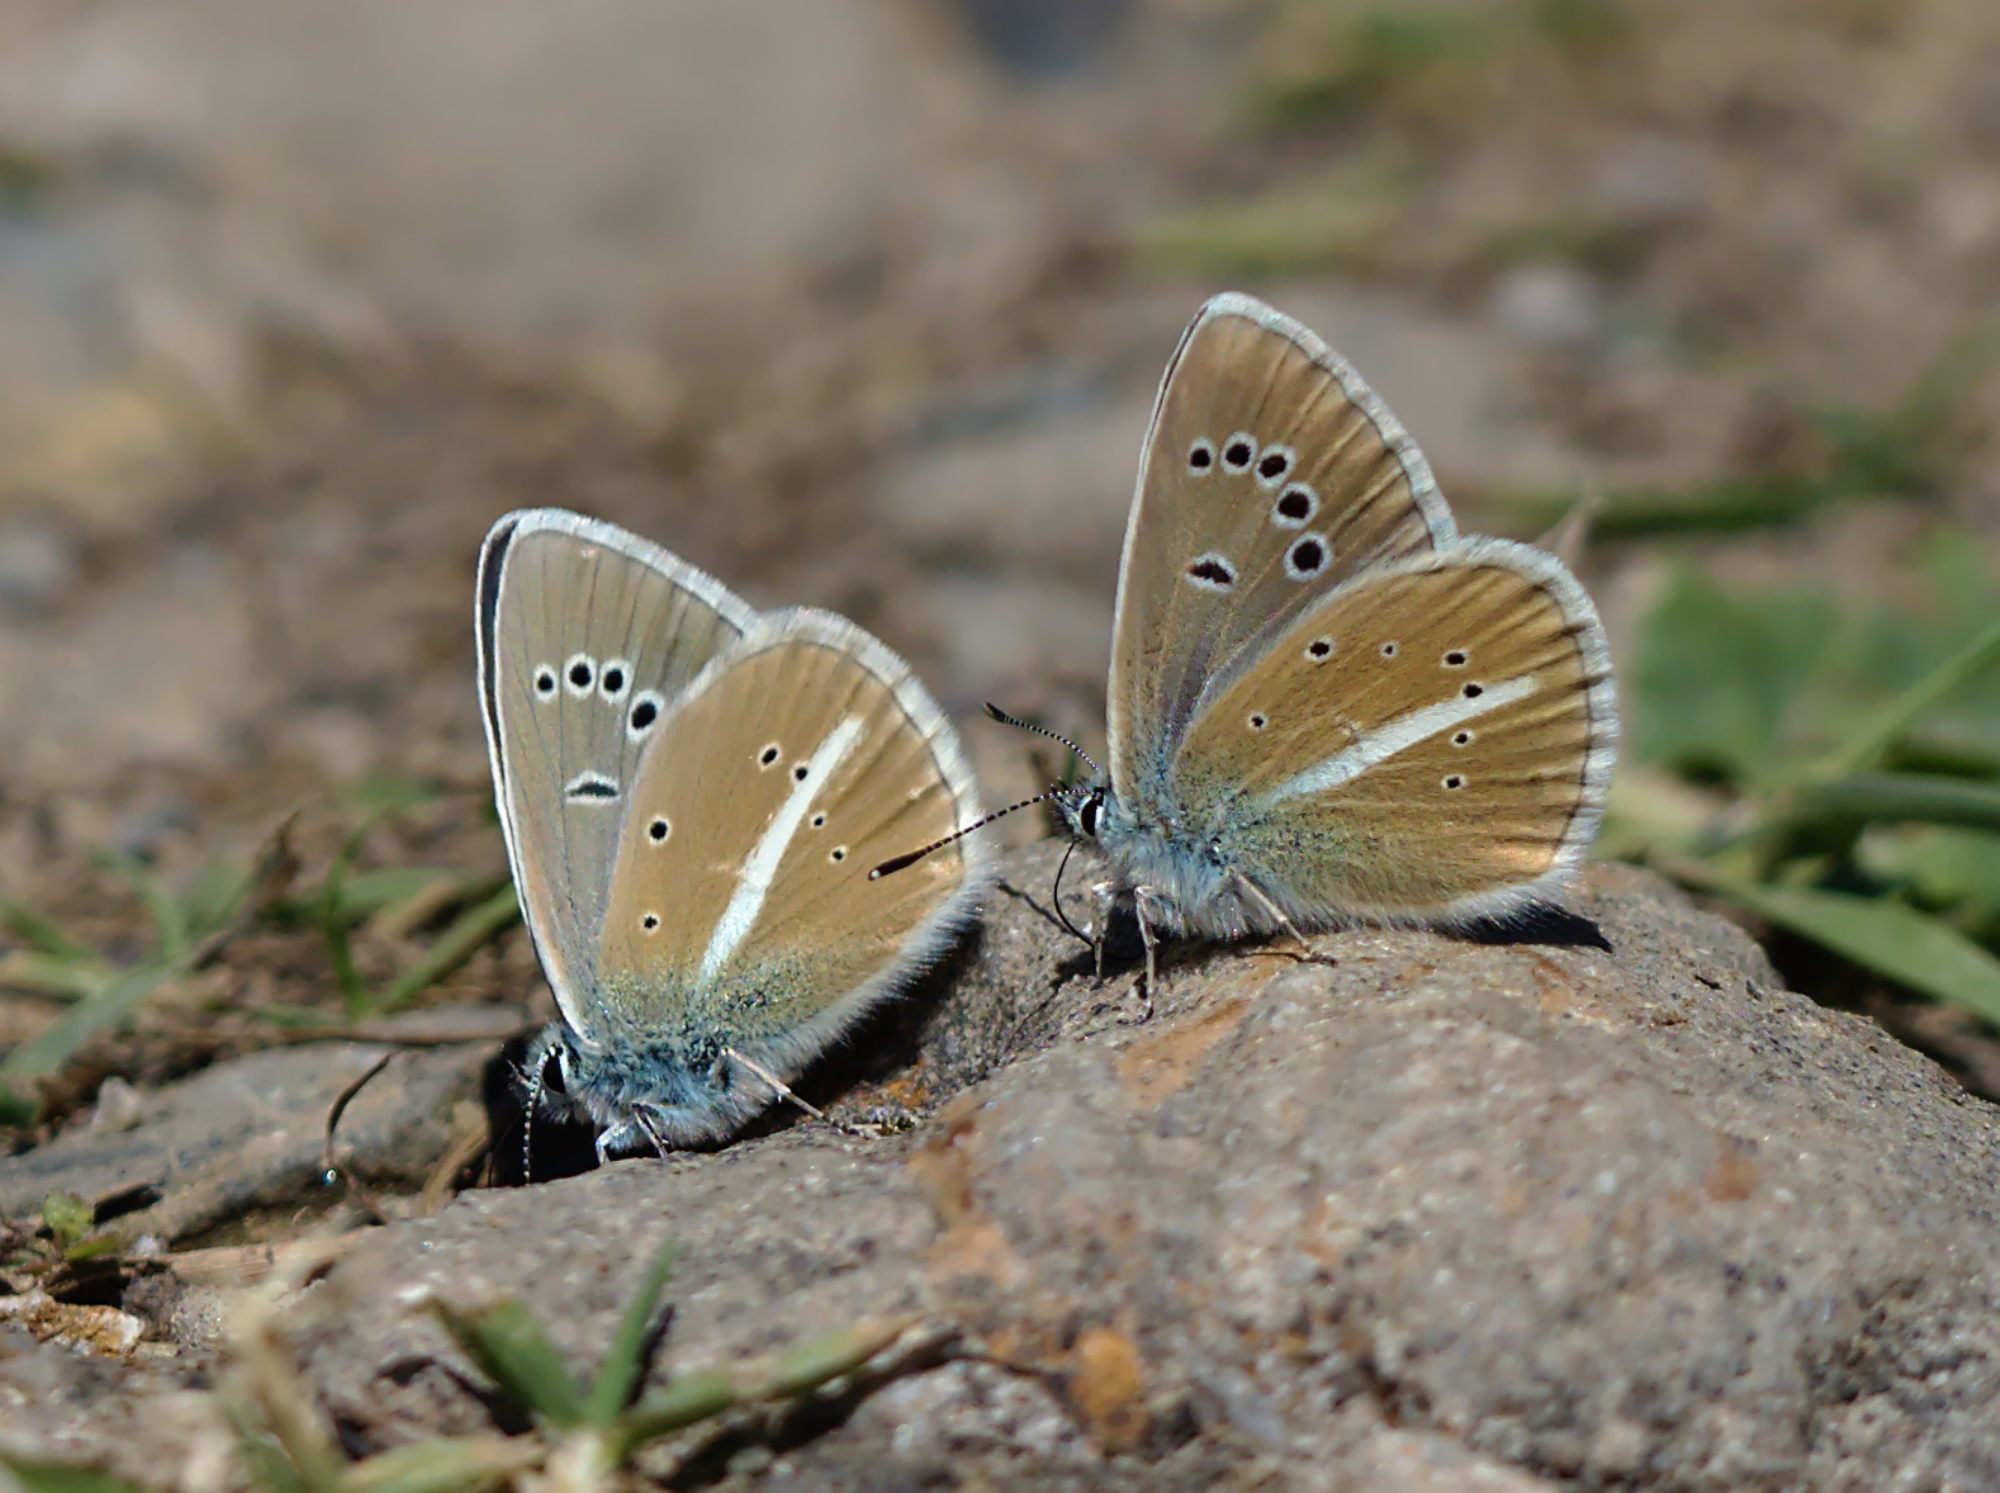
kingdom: Animalia
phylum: Arthropoda
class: Insecta
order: Lepidoptera
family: Lycaenidae
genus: Agrodiaetus
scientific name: Agrodiaetus damon
